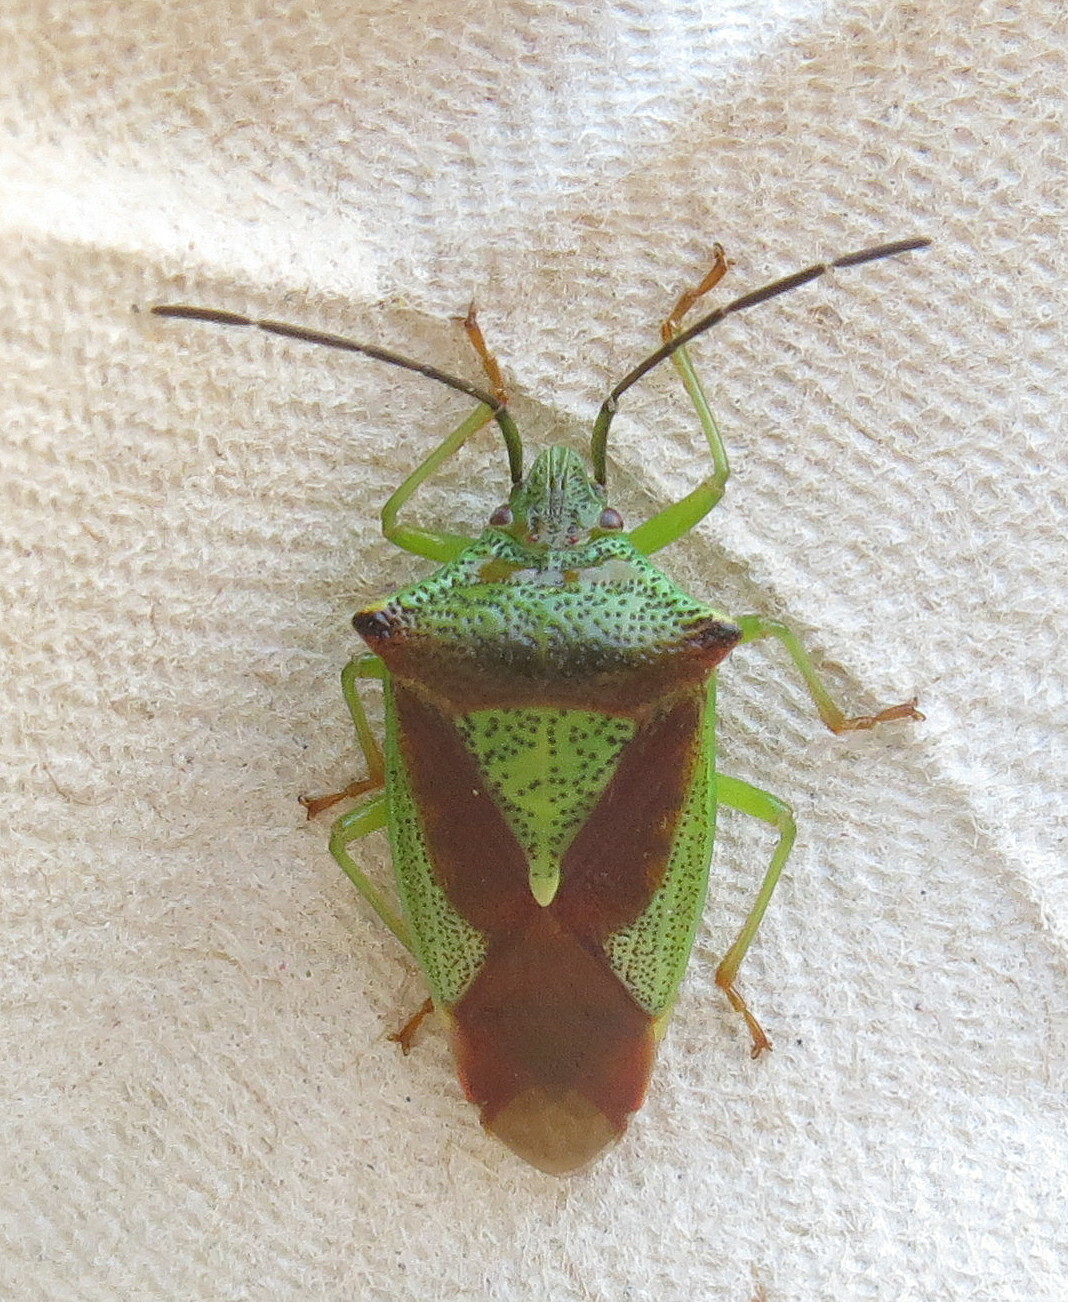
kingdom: Animalia
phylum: Arthropoda
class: Insecta
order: Hemiptera
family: Acanthosomatidae
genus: Acanthosoma
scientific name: Acanthosoma haemorrhoidale
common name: Hawthorn shieldbug
